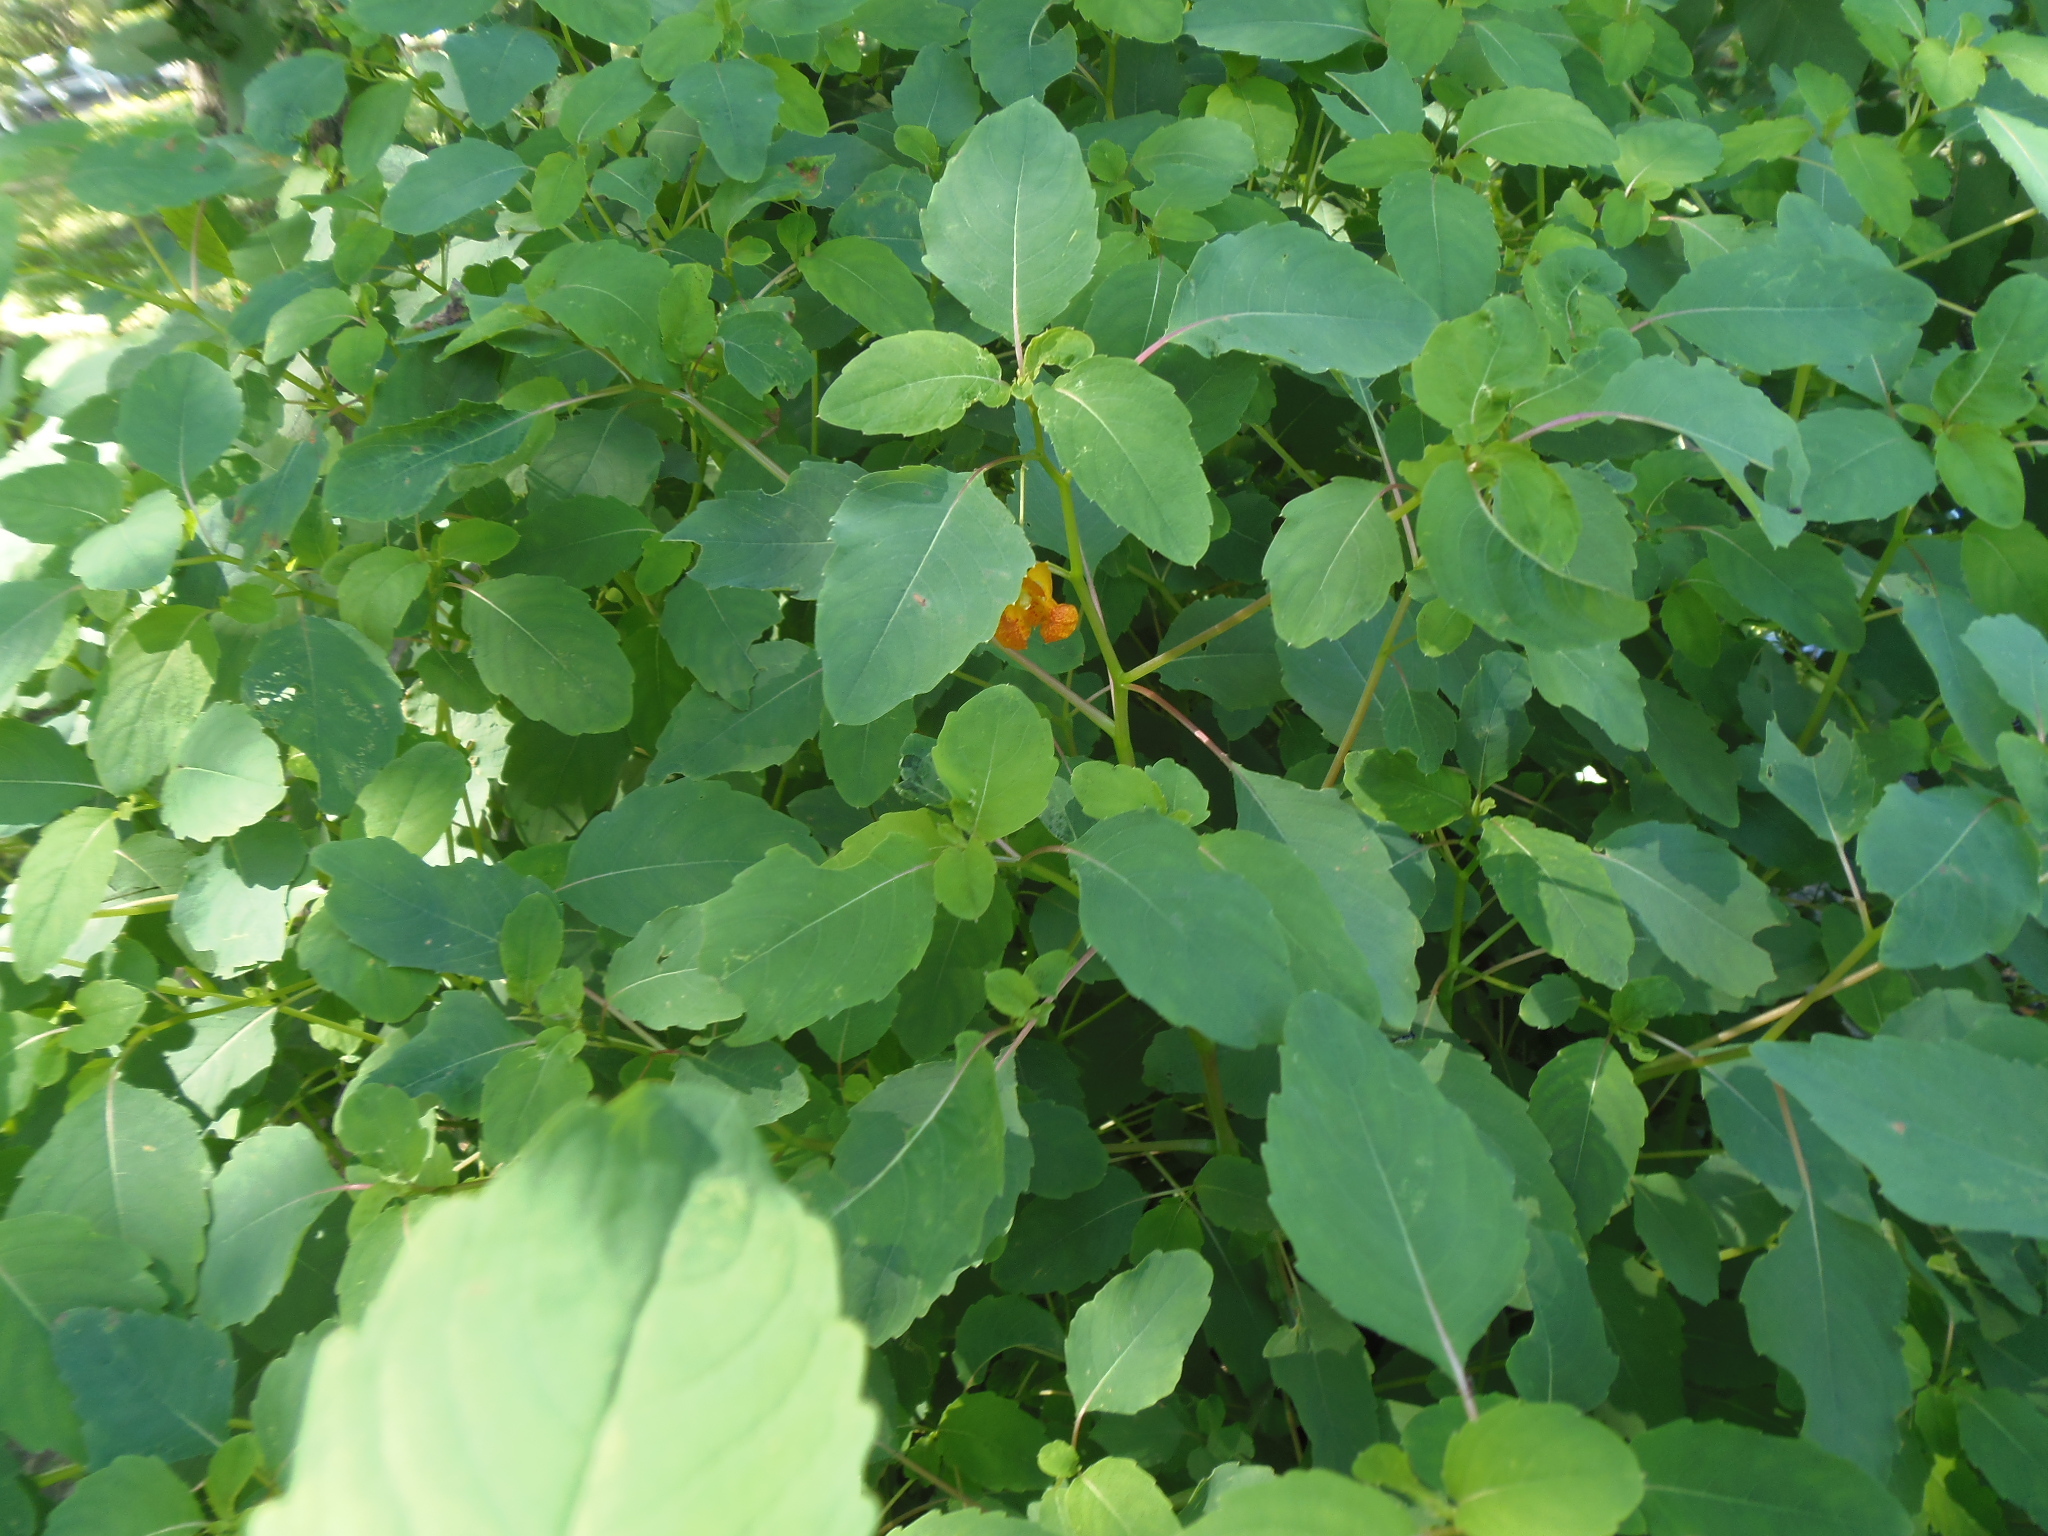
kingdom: Plantae
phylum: Tracheophyta
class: Magnoliopsida
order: Ericales
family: Balsaminaceae
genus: Impatiens
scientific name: Impatiens capensis
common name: Orange balsam
